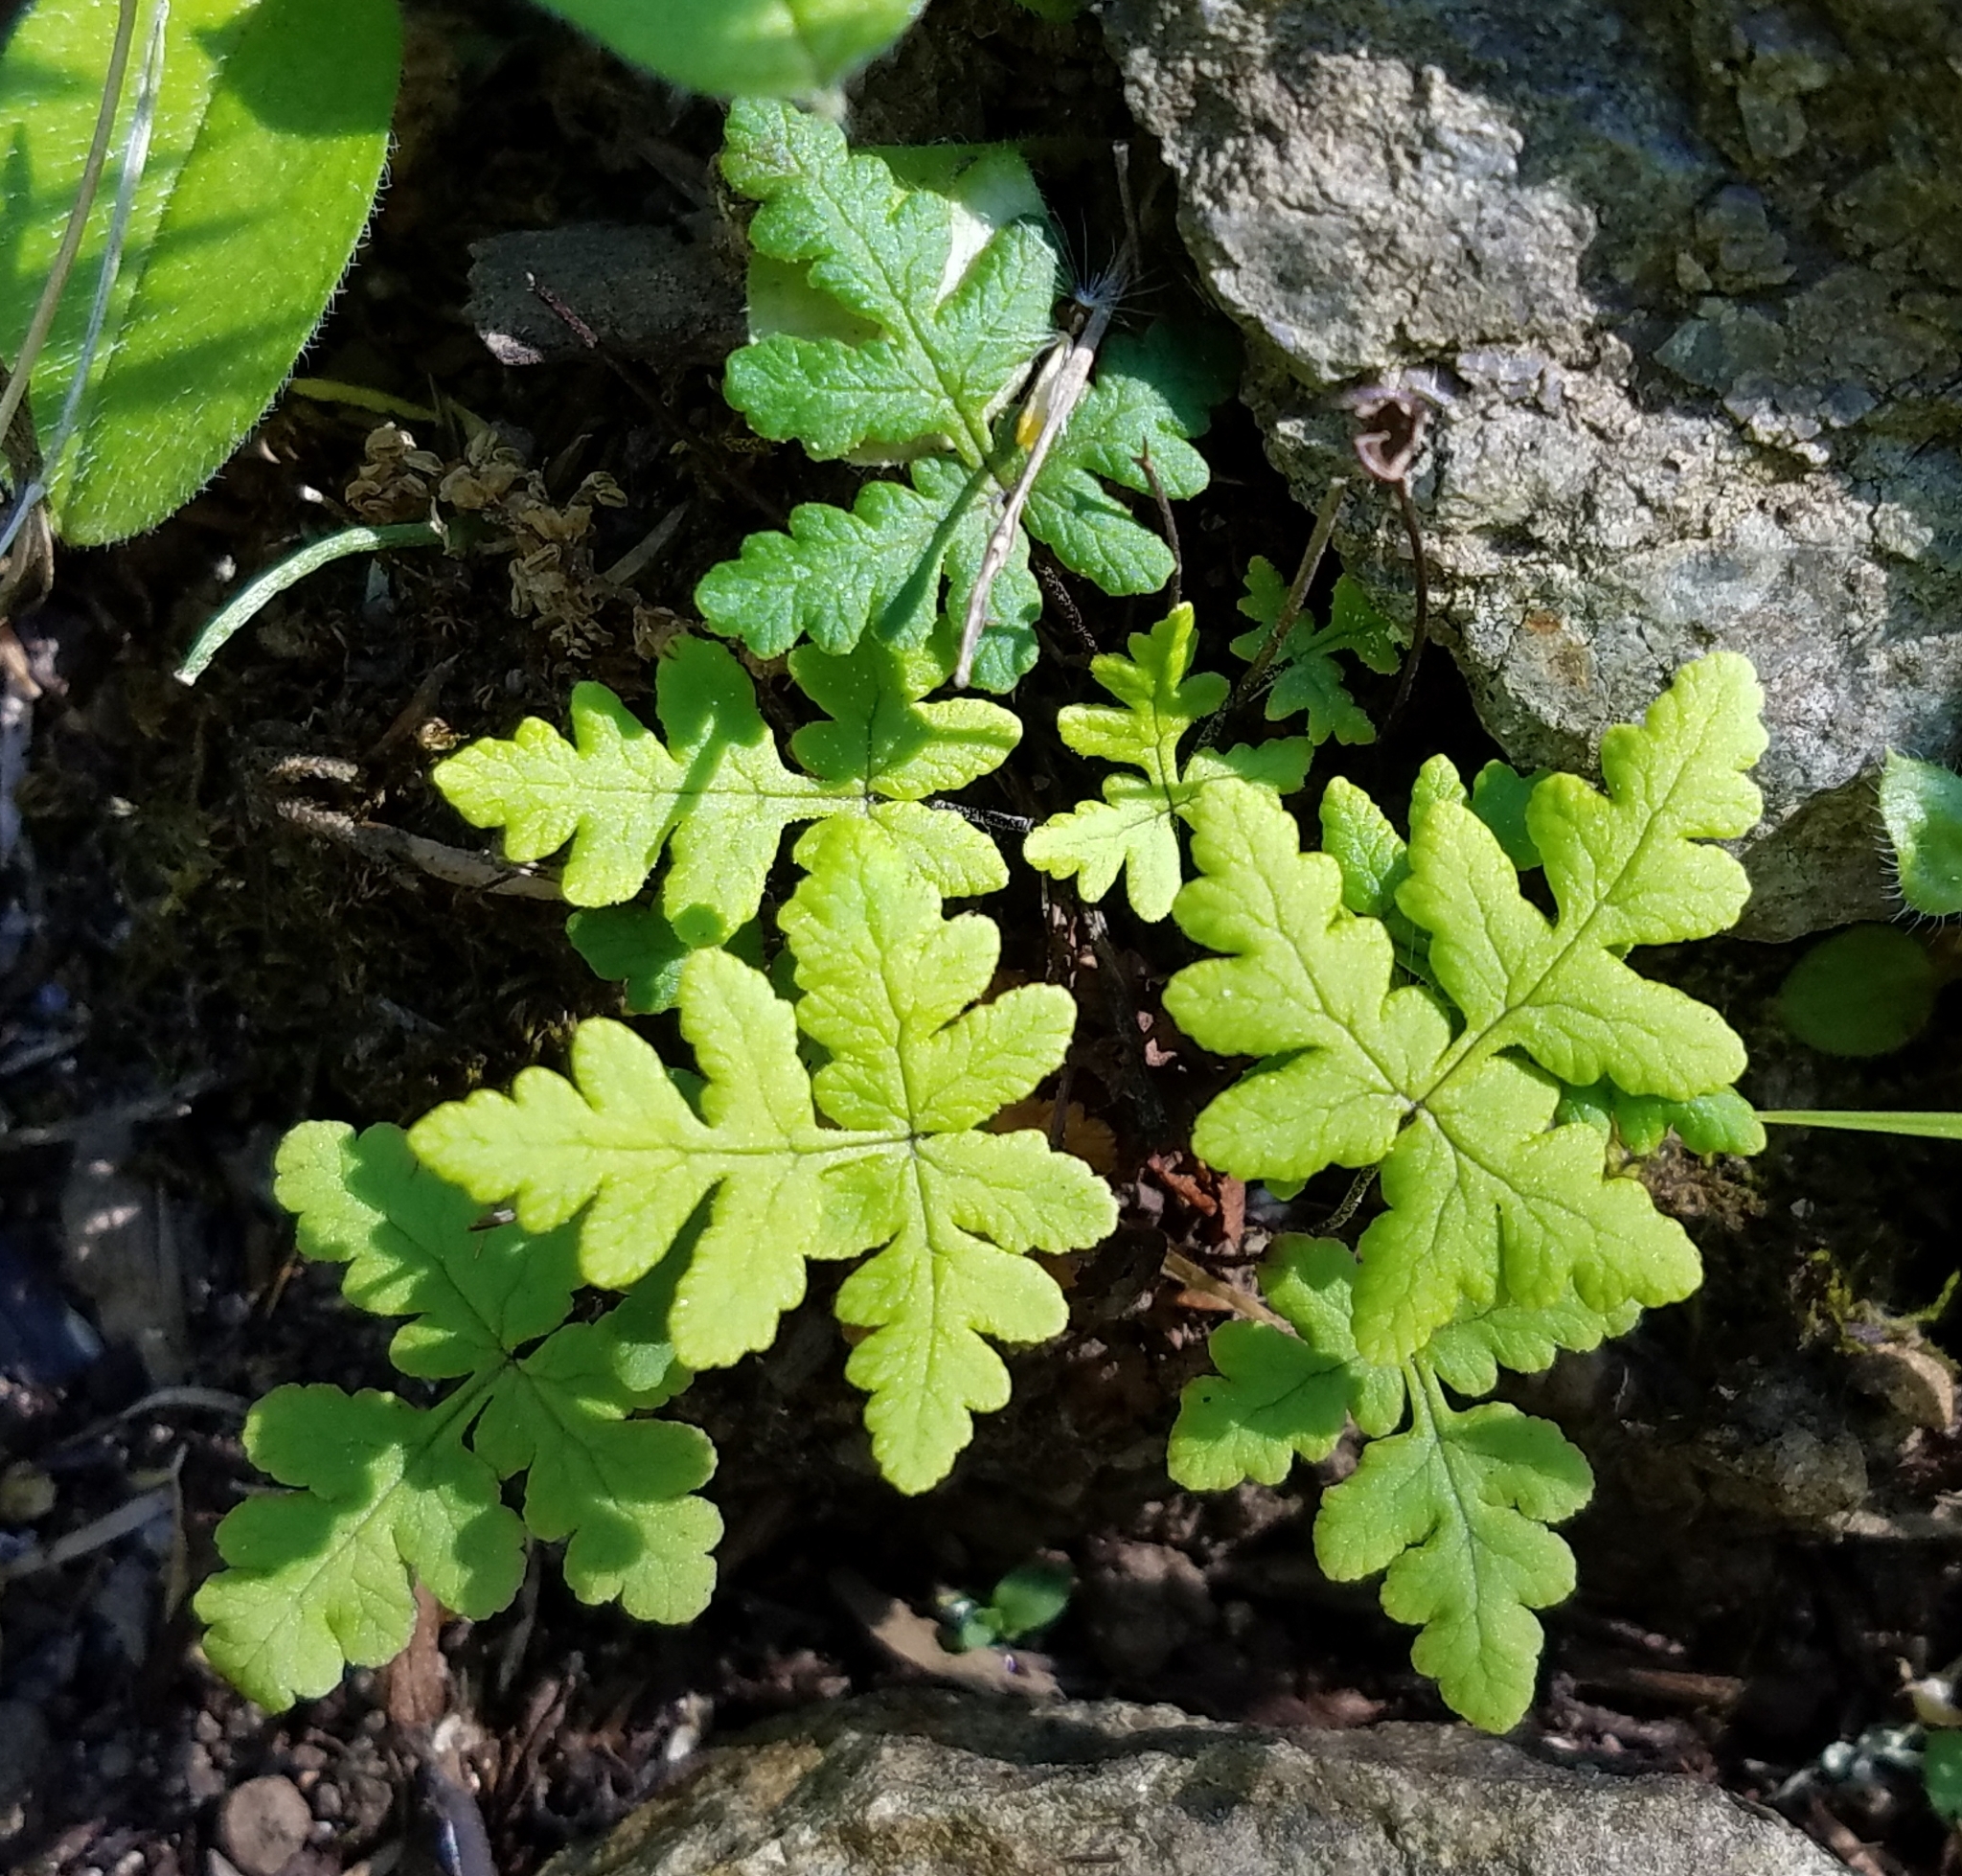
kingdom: Plantae
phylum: Tracheophyta
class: Polypodiopsida
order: Polypodiales
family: Pteridaceae
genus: Pentagramma
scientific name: Pentagramma triangularis
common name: Gold fern
